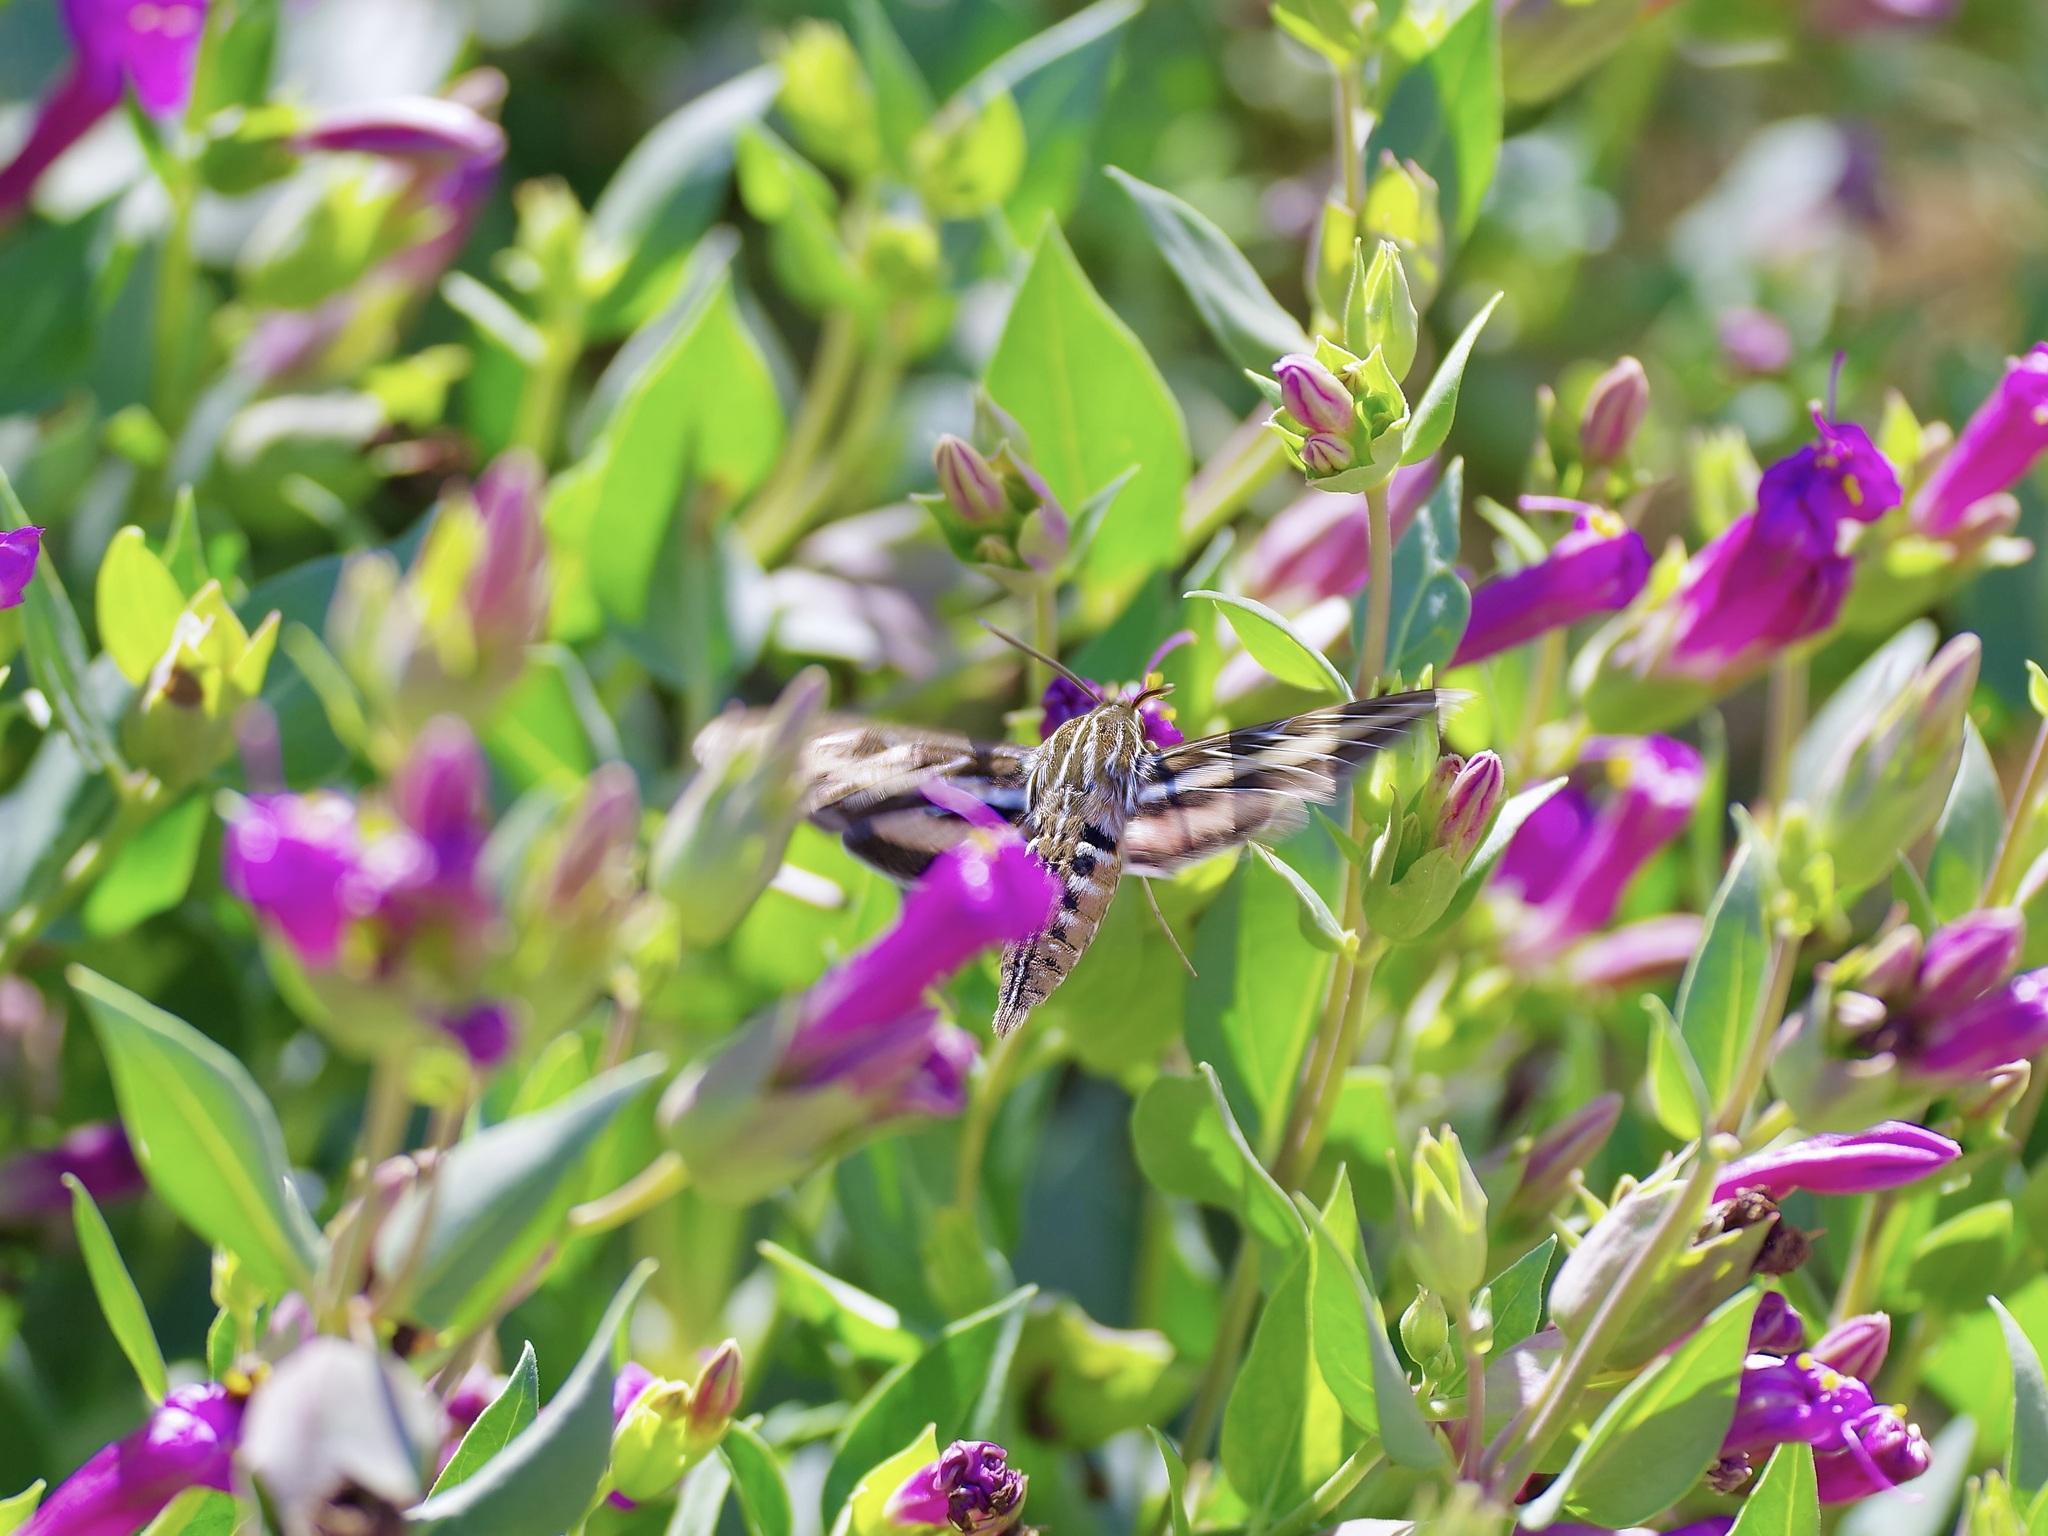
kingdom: Animalia
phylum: Arthropoda
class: Insecta
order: Lepidoptera
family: Sphingidae
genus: Hyles
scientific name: Hyles lineata
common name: White-lined sphinx
